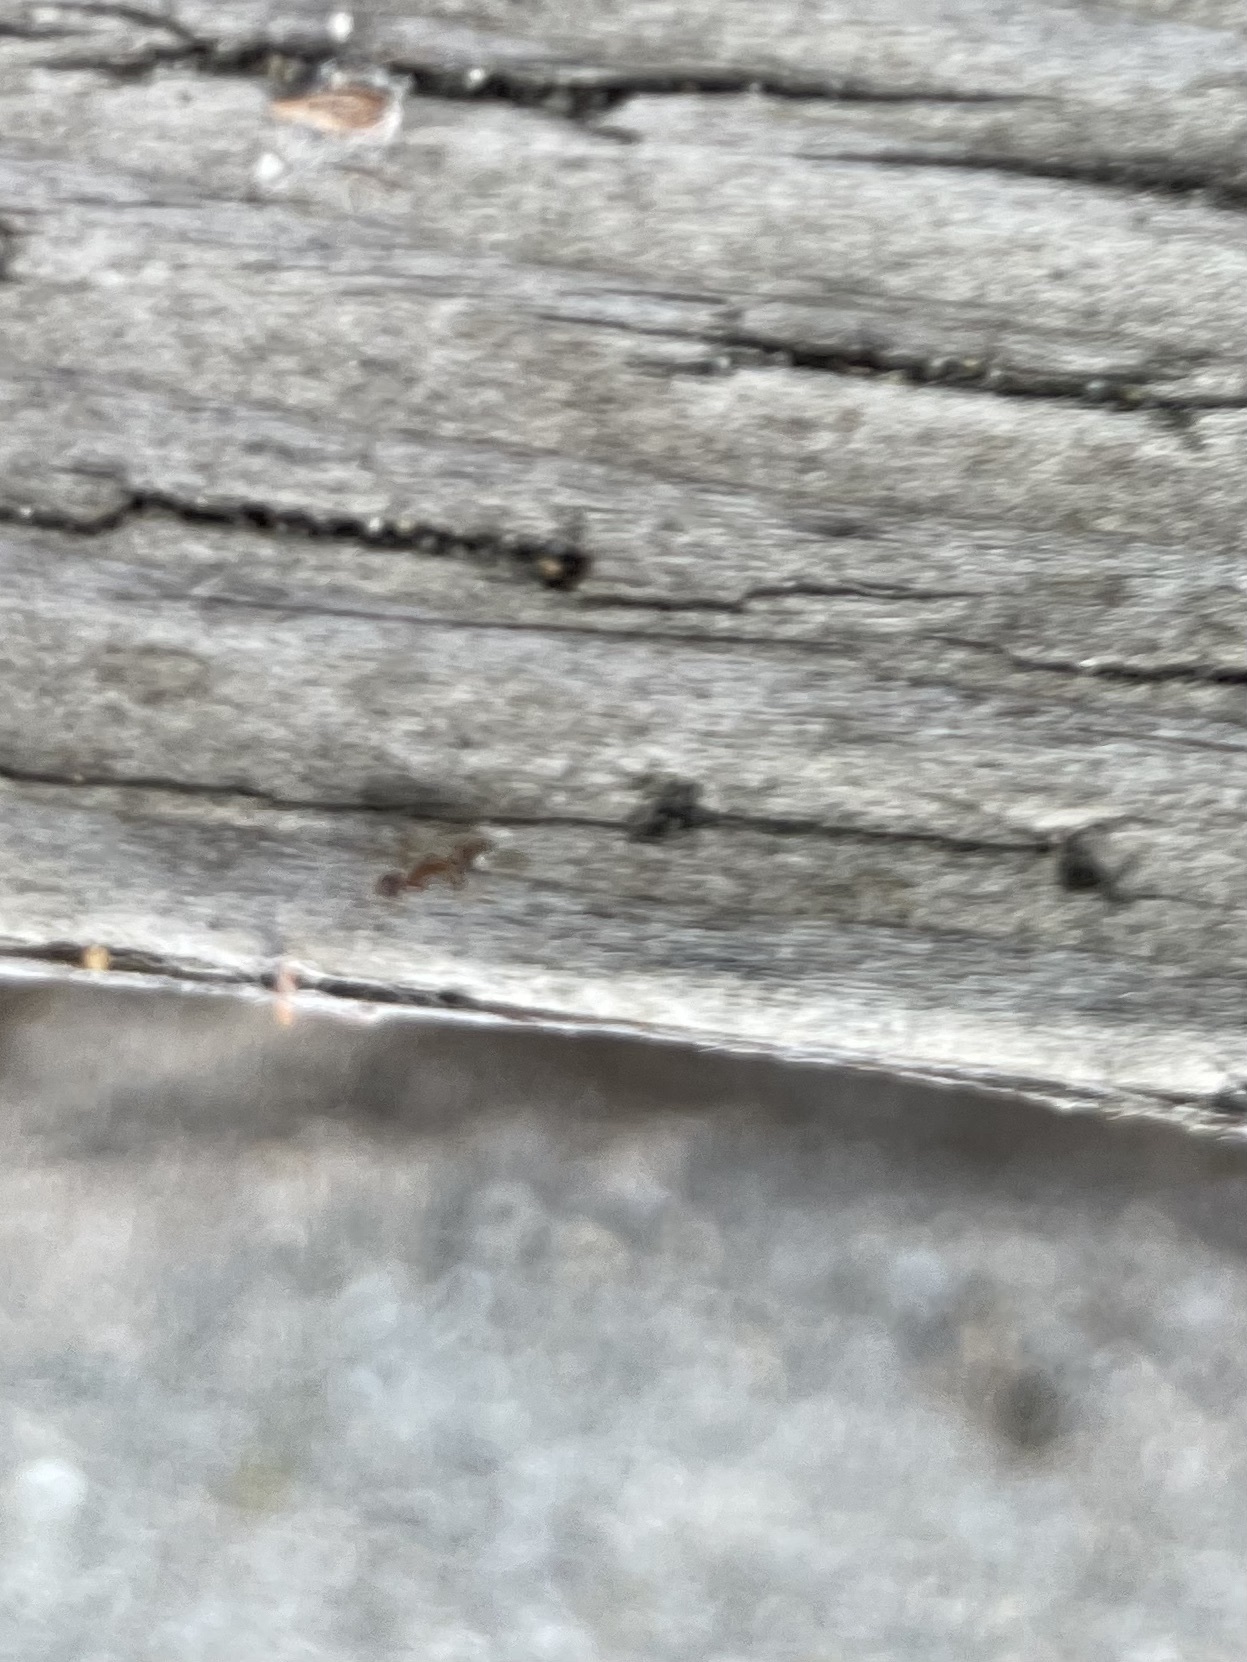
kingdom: Animalia
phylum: Arthropoda
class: Insecta
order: Hymenoptera
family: Formicidae
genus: Linepithema
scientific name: Linepithema humile
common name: Argentine ant
